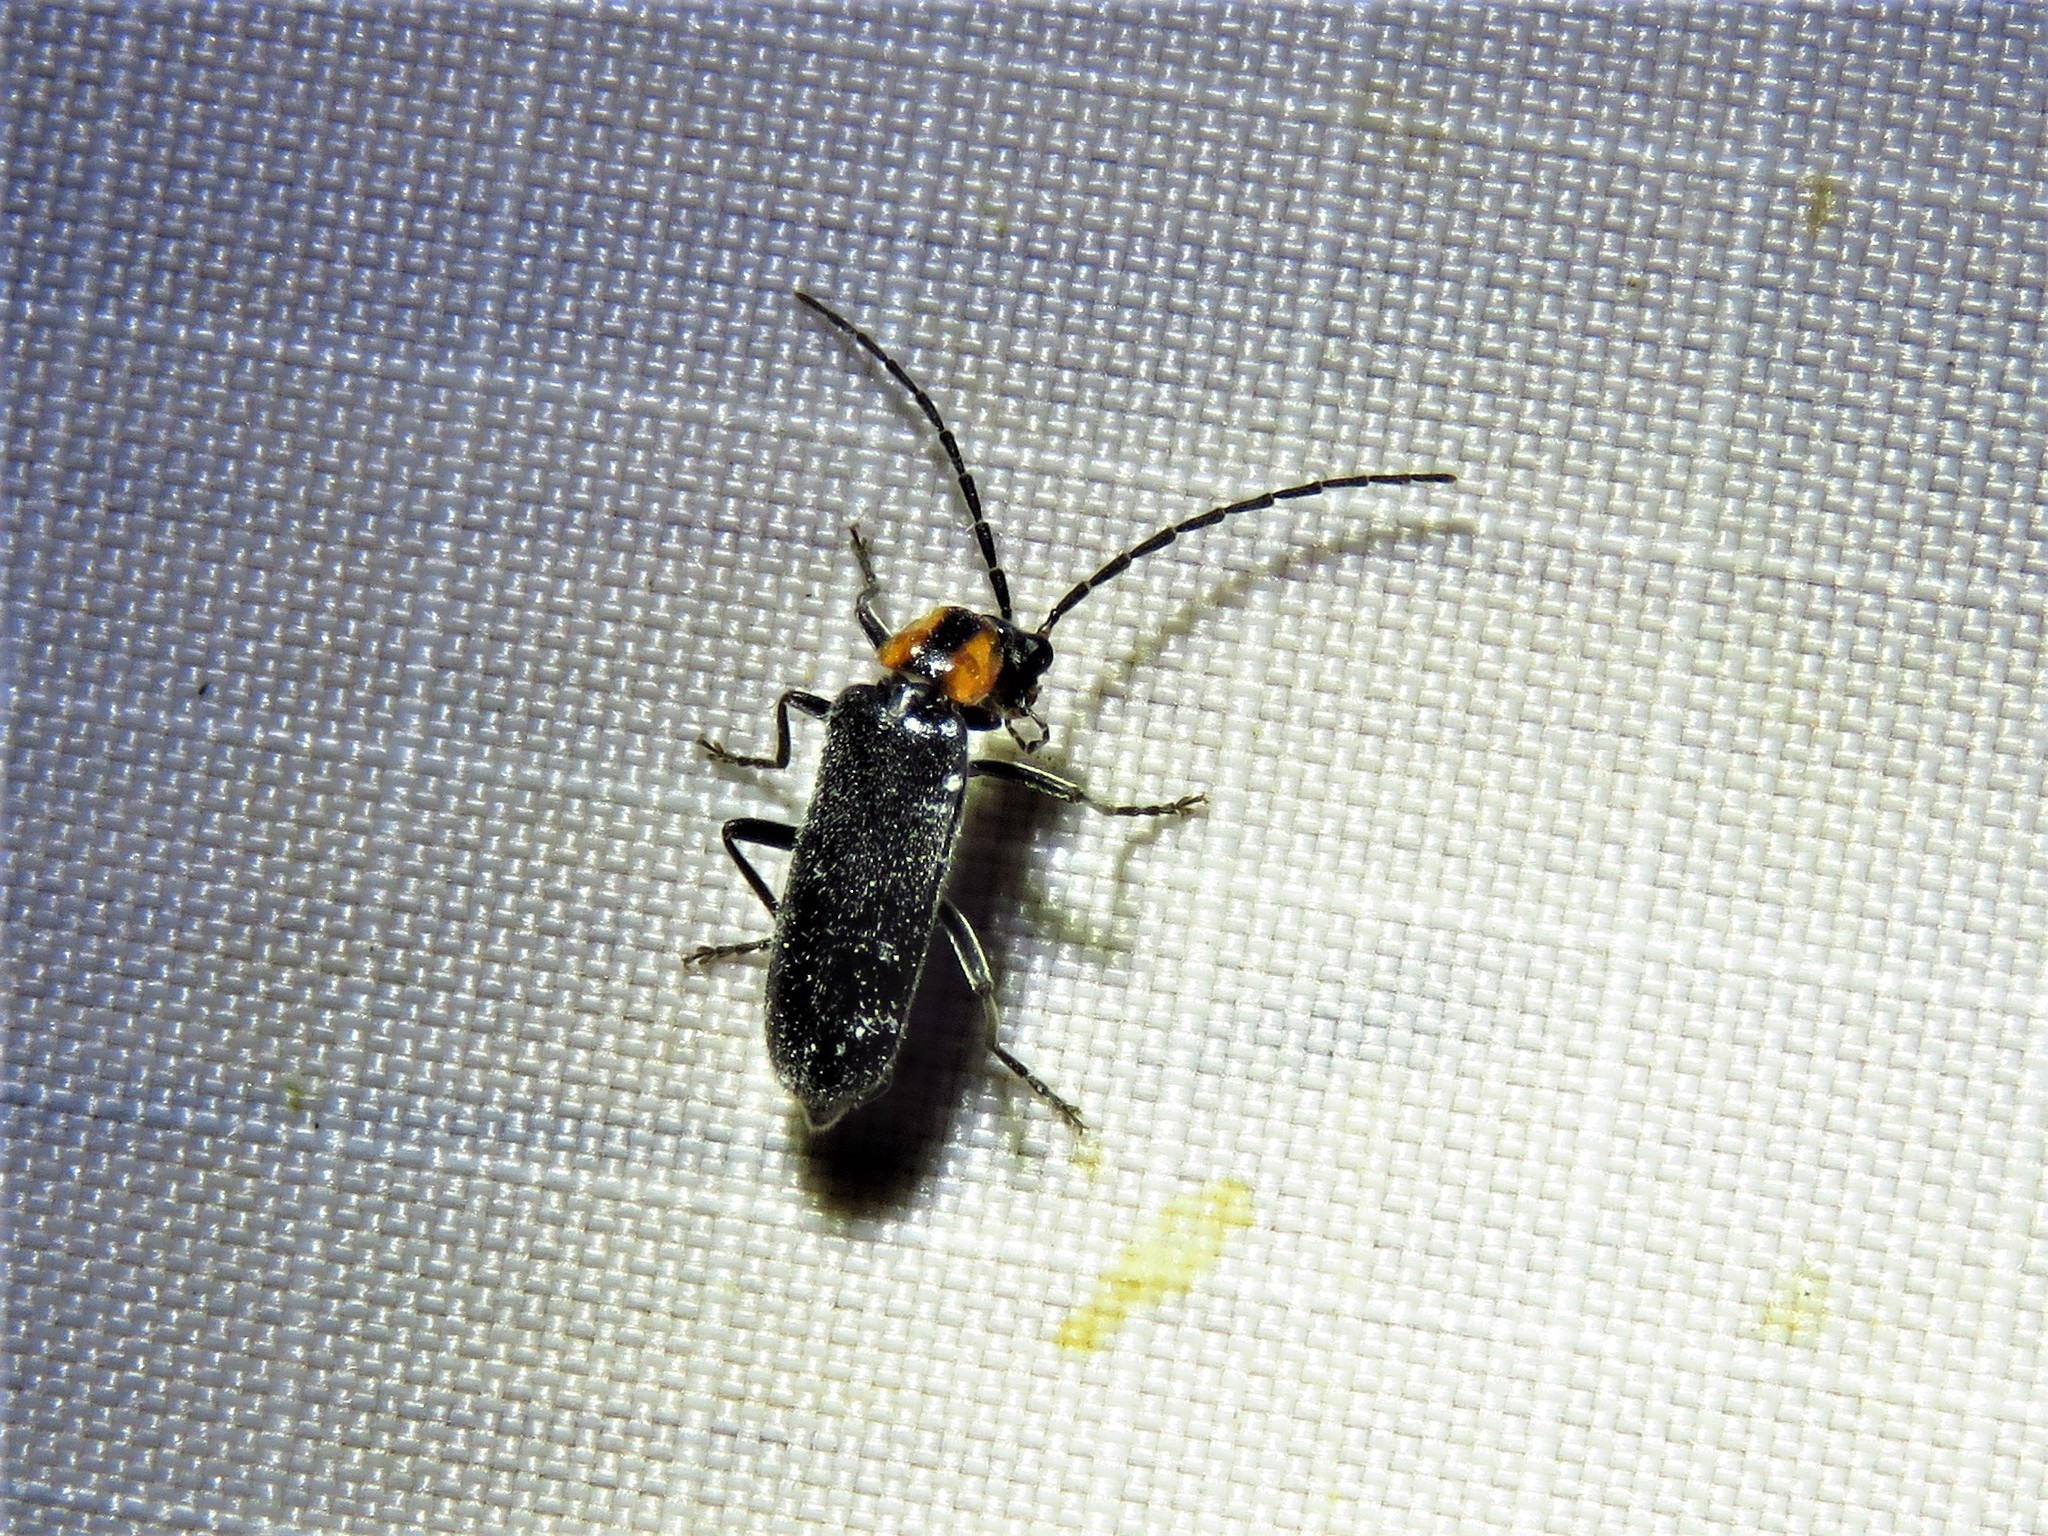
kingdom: Animalia
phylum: Arthropoda
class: Insecta
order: Coleoptera
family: Cantharidae
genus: Rhagonycha
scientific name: Rhagonycha lineola
